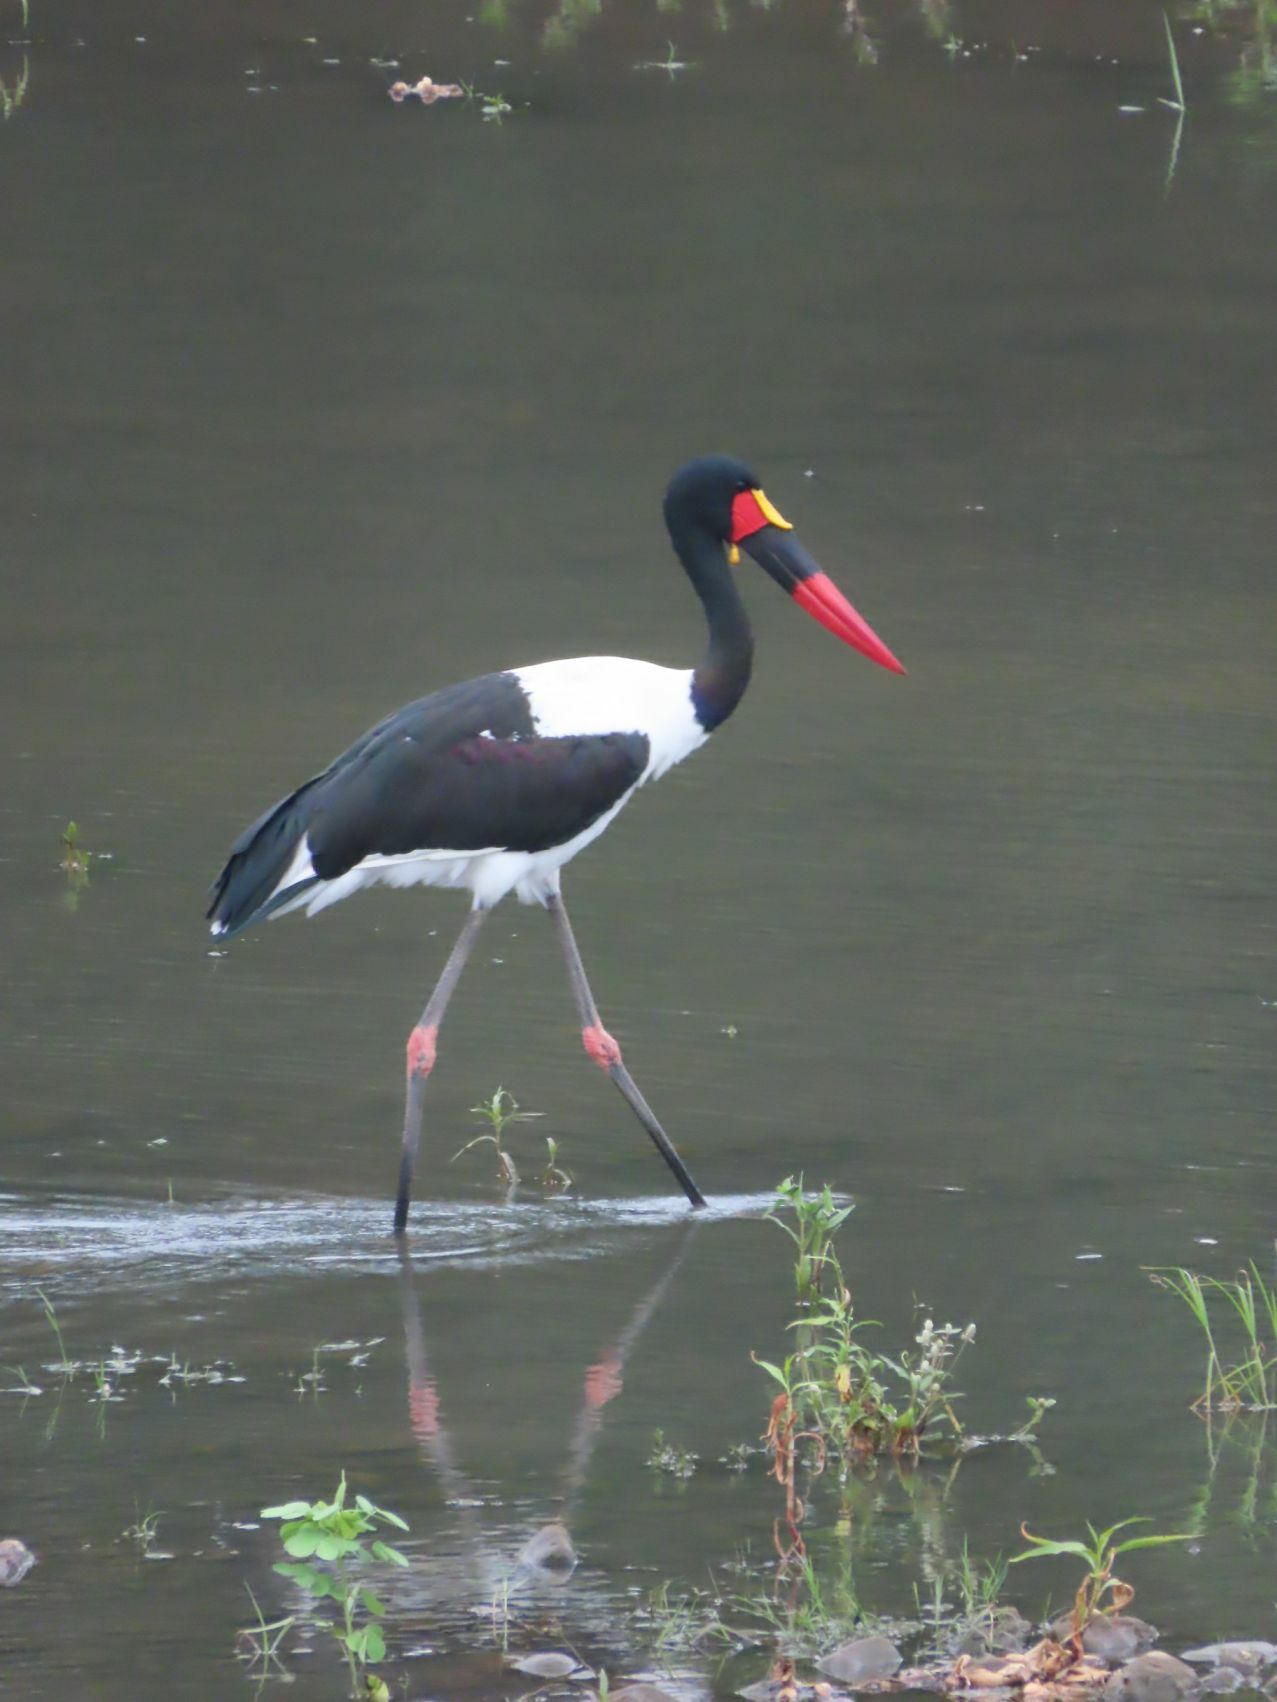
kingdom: Animalia
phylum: Chordata
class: Aves
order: Ciconiiformes
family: Ciconiidae
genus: Ephippiorhynchus
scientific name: Ephippiorhynchus senegalensis
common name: Saddle-billed stork
